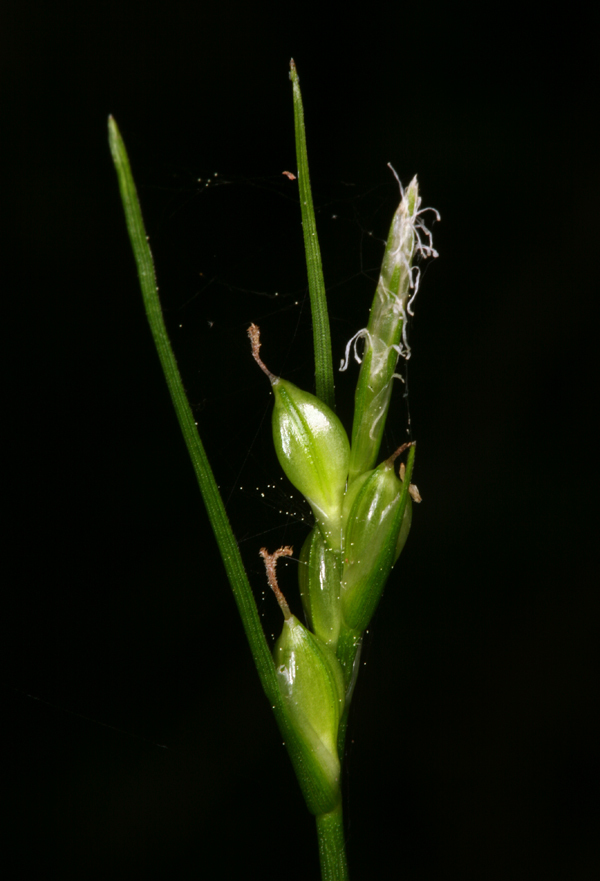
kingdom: Plantae
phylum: Tracheophyta
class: Liliopsida
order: Poales
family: Cyperaceae
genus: Carex
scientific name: Carex multicaulis
